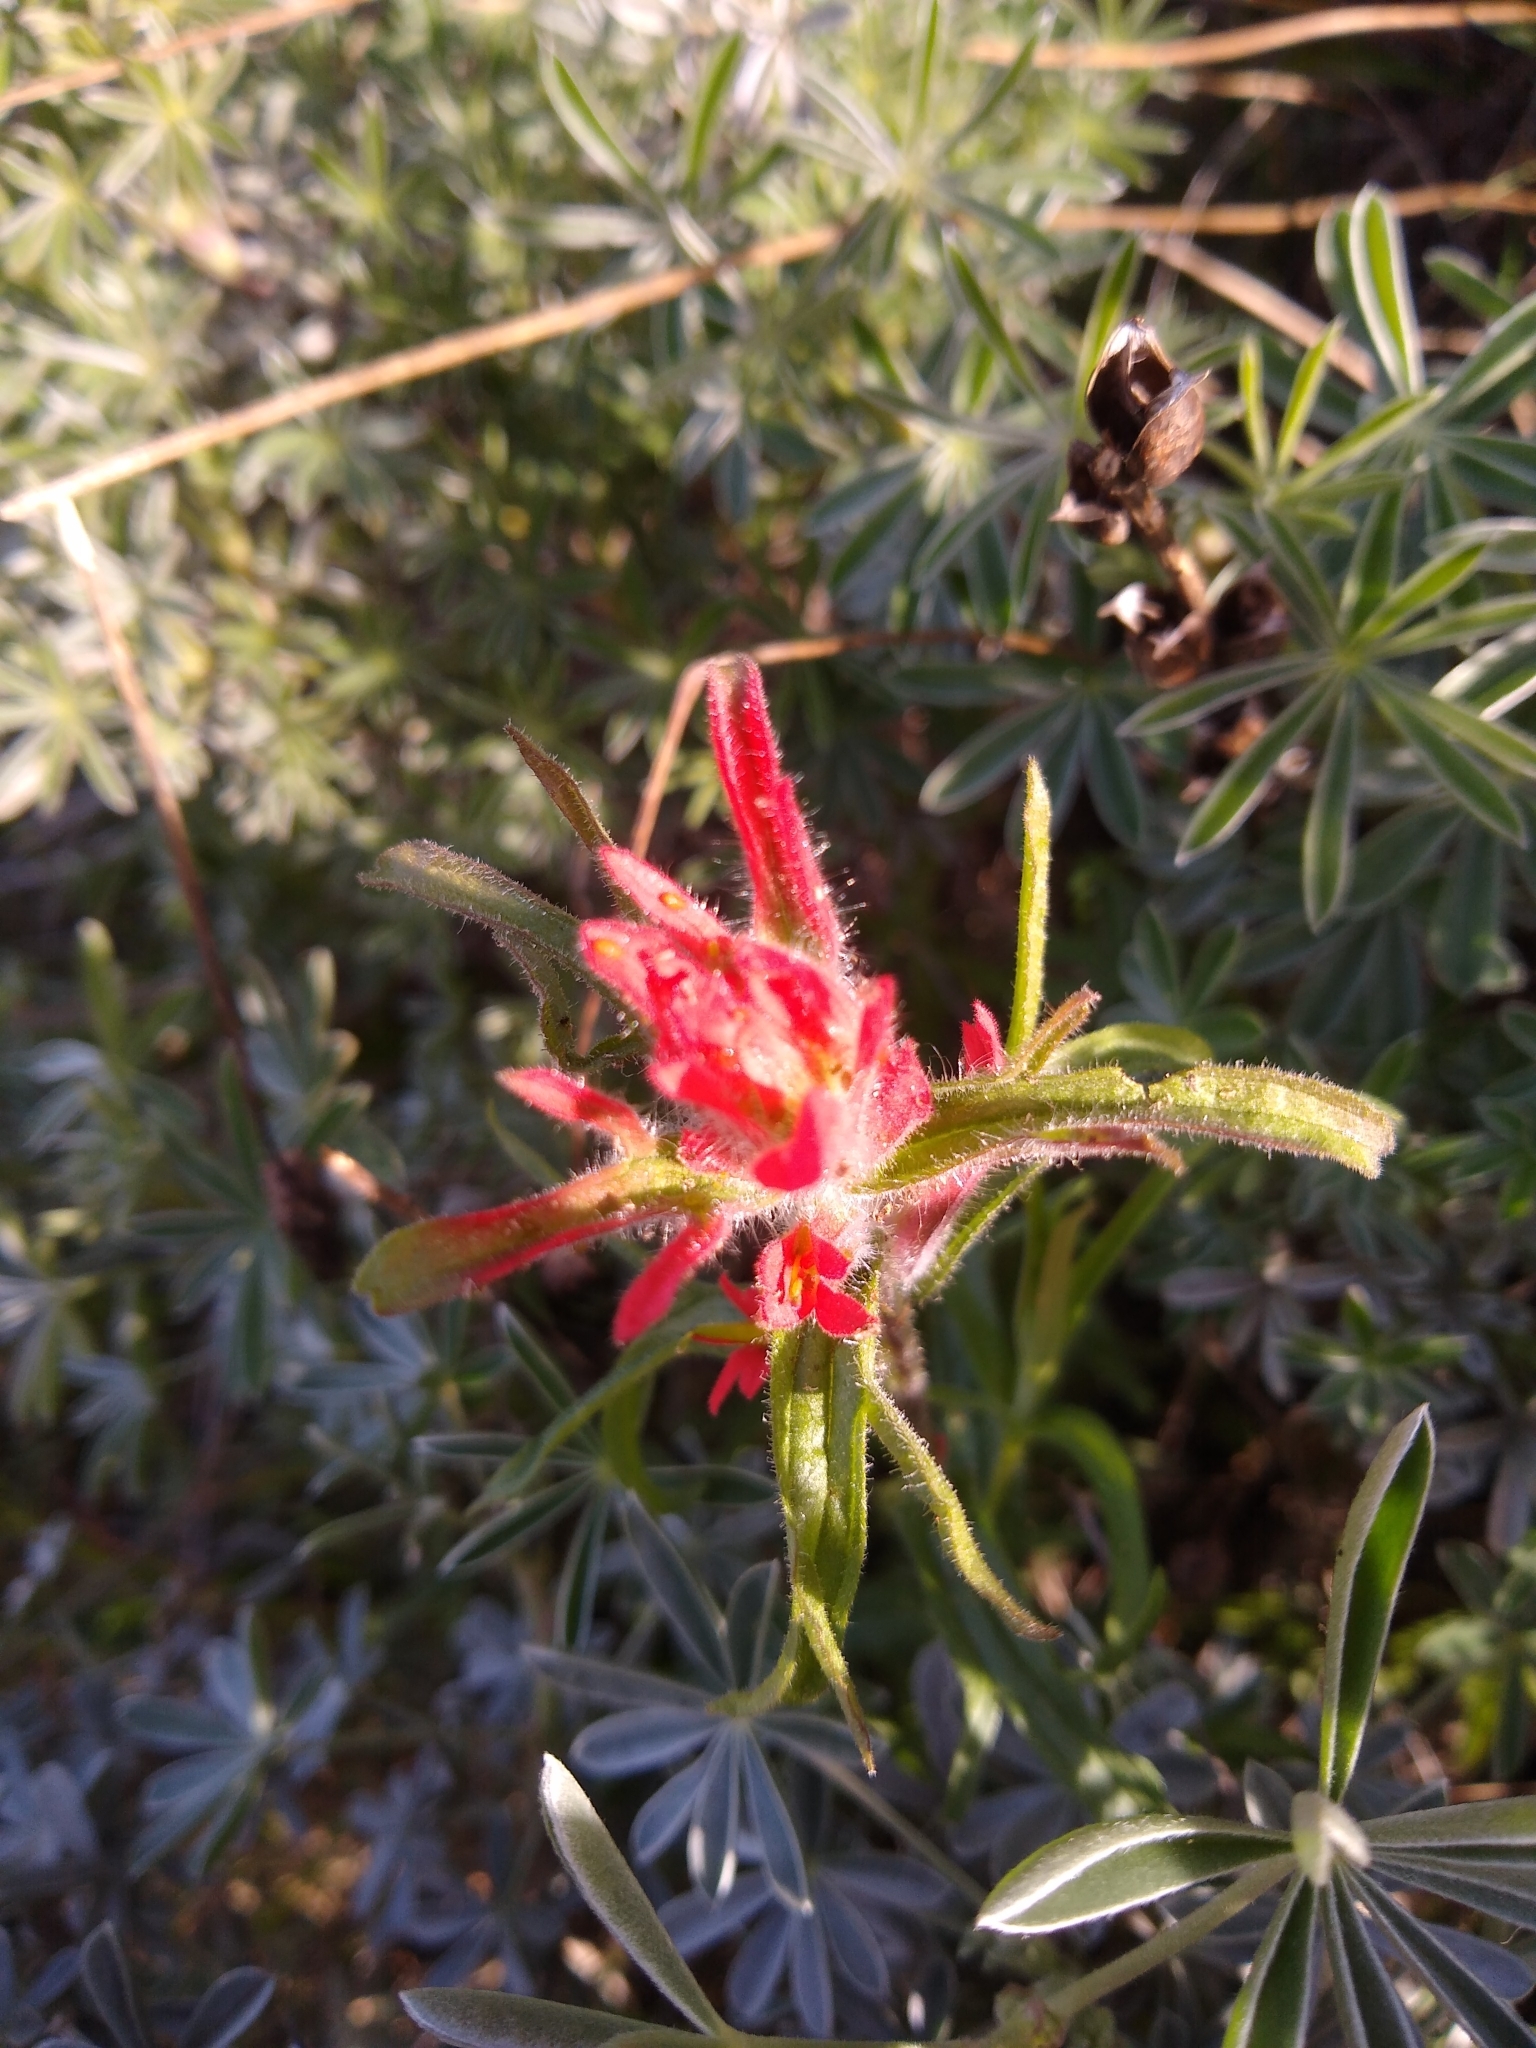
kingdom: Plantae
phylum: Tracheophyta
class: Magnoliopsida
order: Lamiales
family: Orobanchaceae
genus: Castilleja
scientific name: Castilleja affinis
